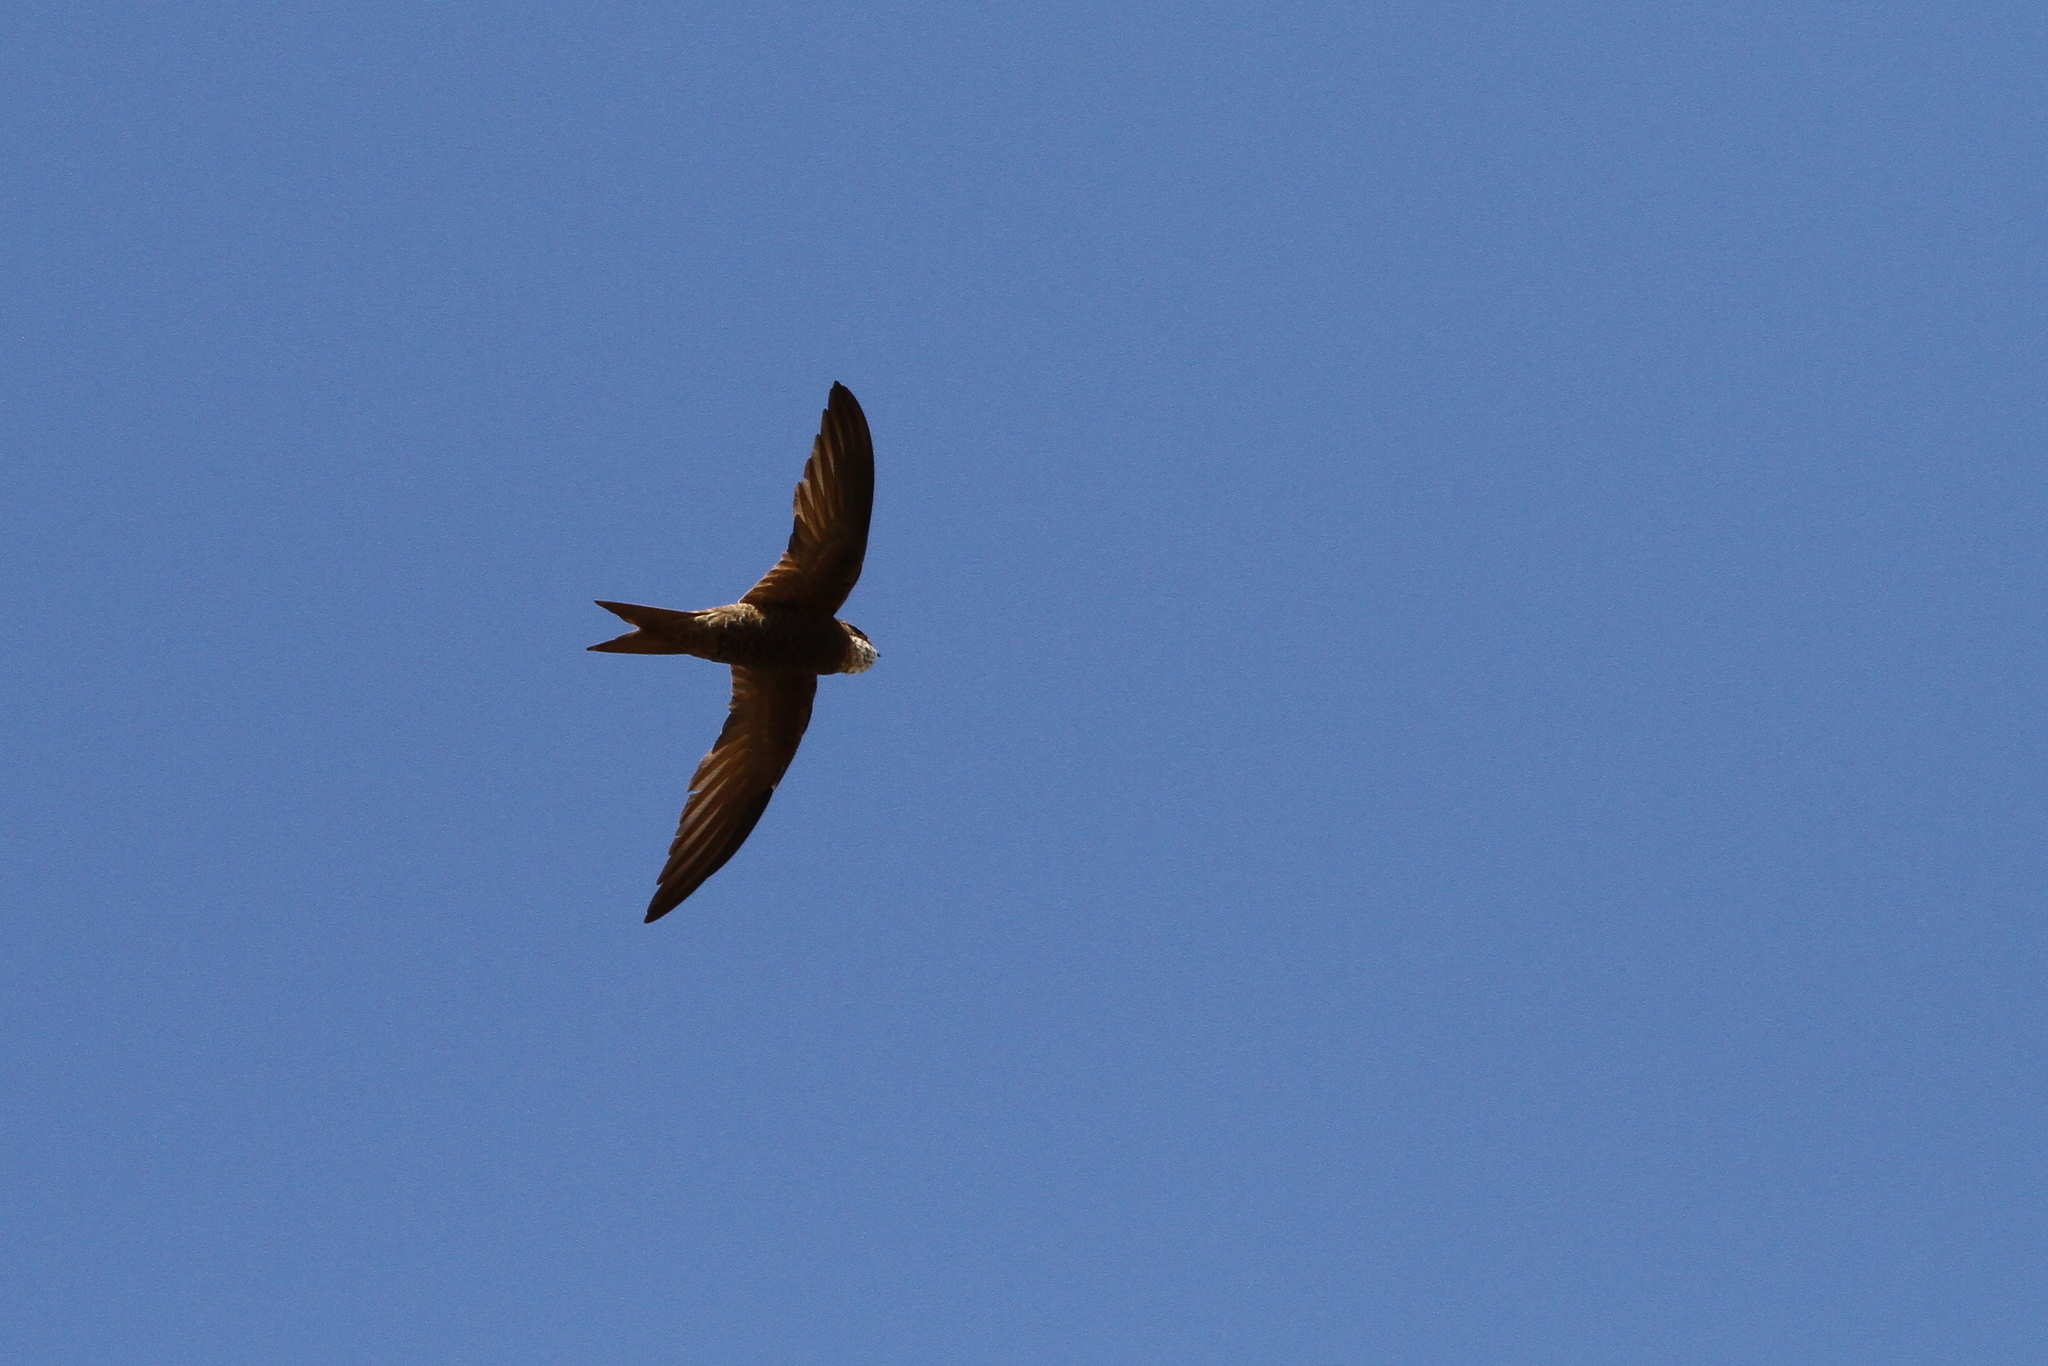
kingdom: Animalia
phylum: Chordata
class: Aves
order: Apodiformes
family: Apodidae
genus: Apus
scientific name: Apus berliozi
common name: Forbes-watson's swift
